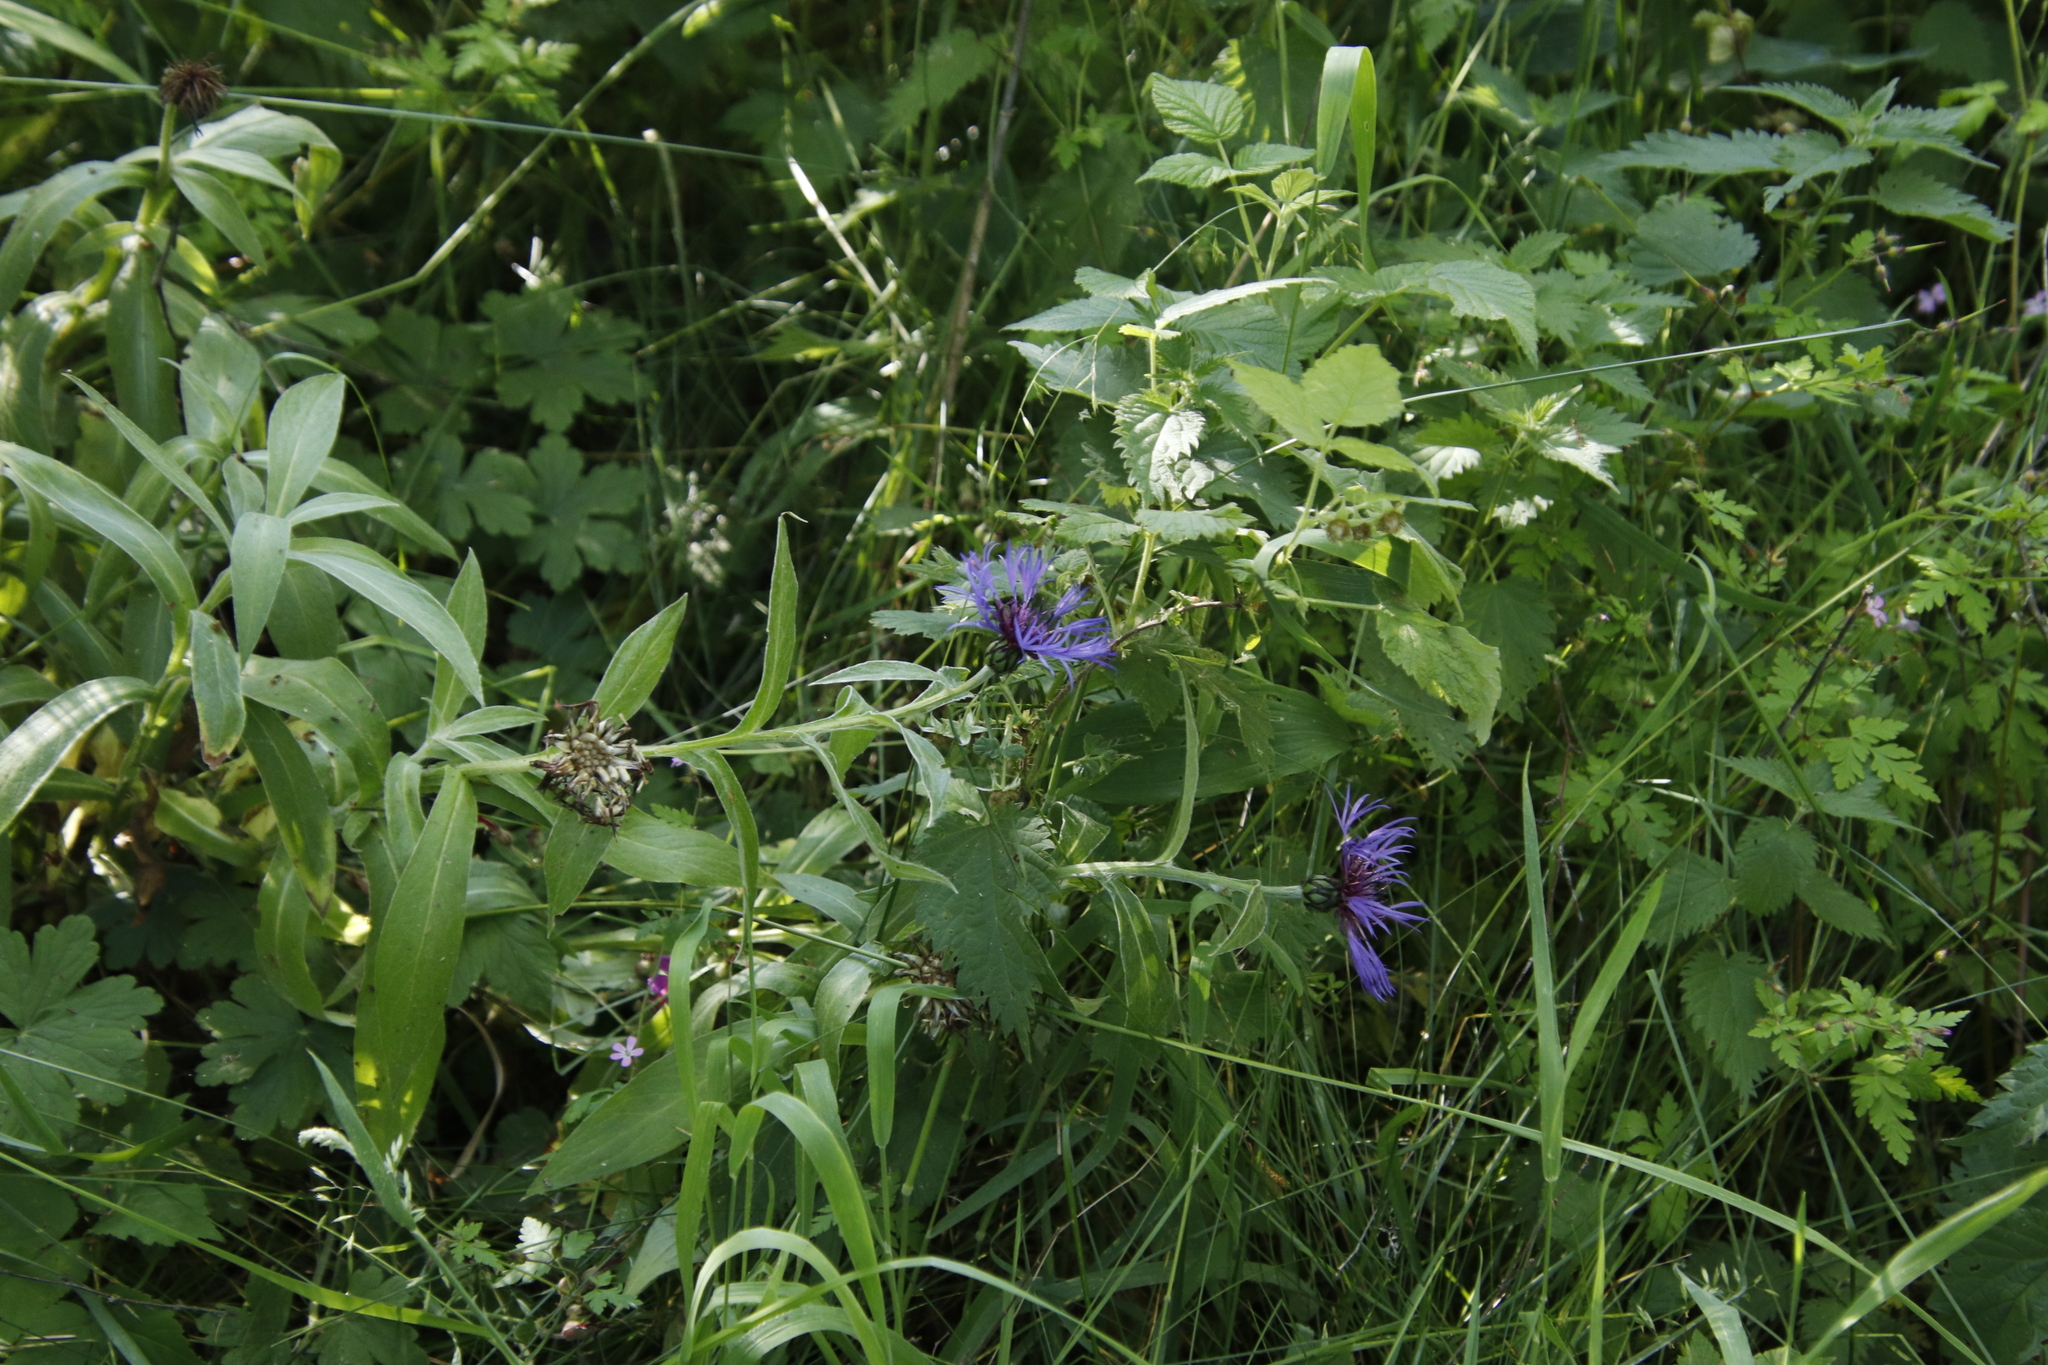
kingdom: Plantae
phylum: Tracheophyta
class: Magnoliopsida
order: Asterales
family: Asteraceae
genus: Centaurea
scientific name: Centaurea montana
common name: Perennial cornflower
